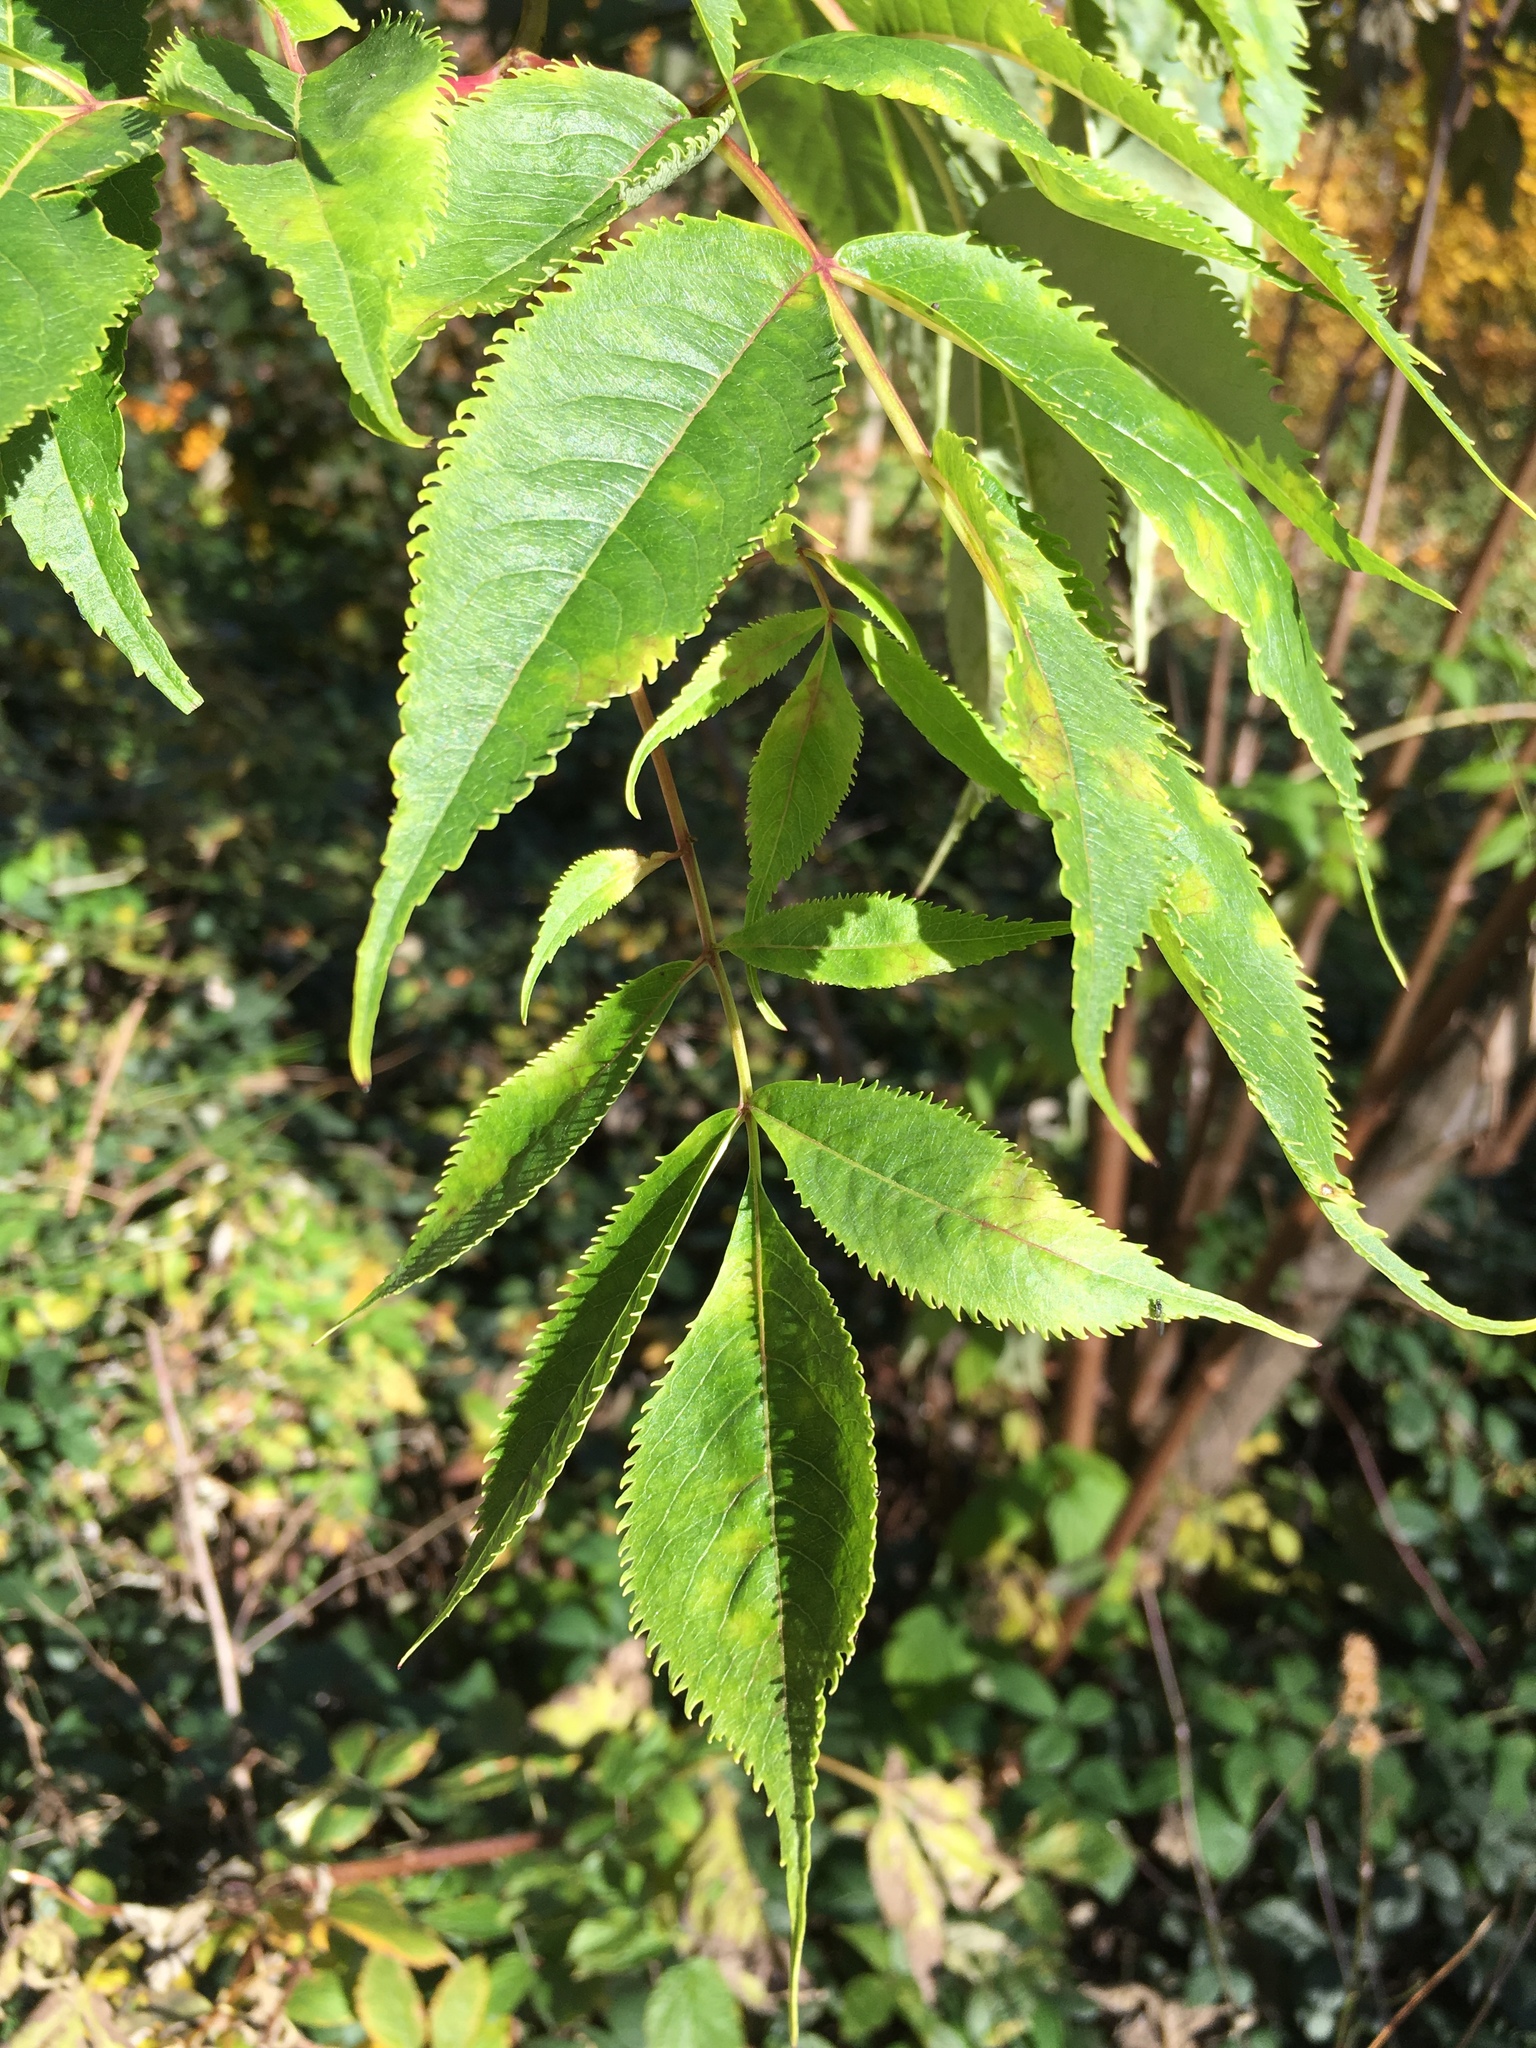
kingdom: Plantae
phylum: Tracheophyta
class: Magnoliopsida
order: Dipsacales
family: Viburnaceae
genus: Sambucus
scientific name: Sambucus nigra
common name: Elder
